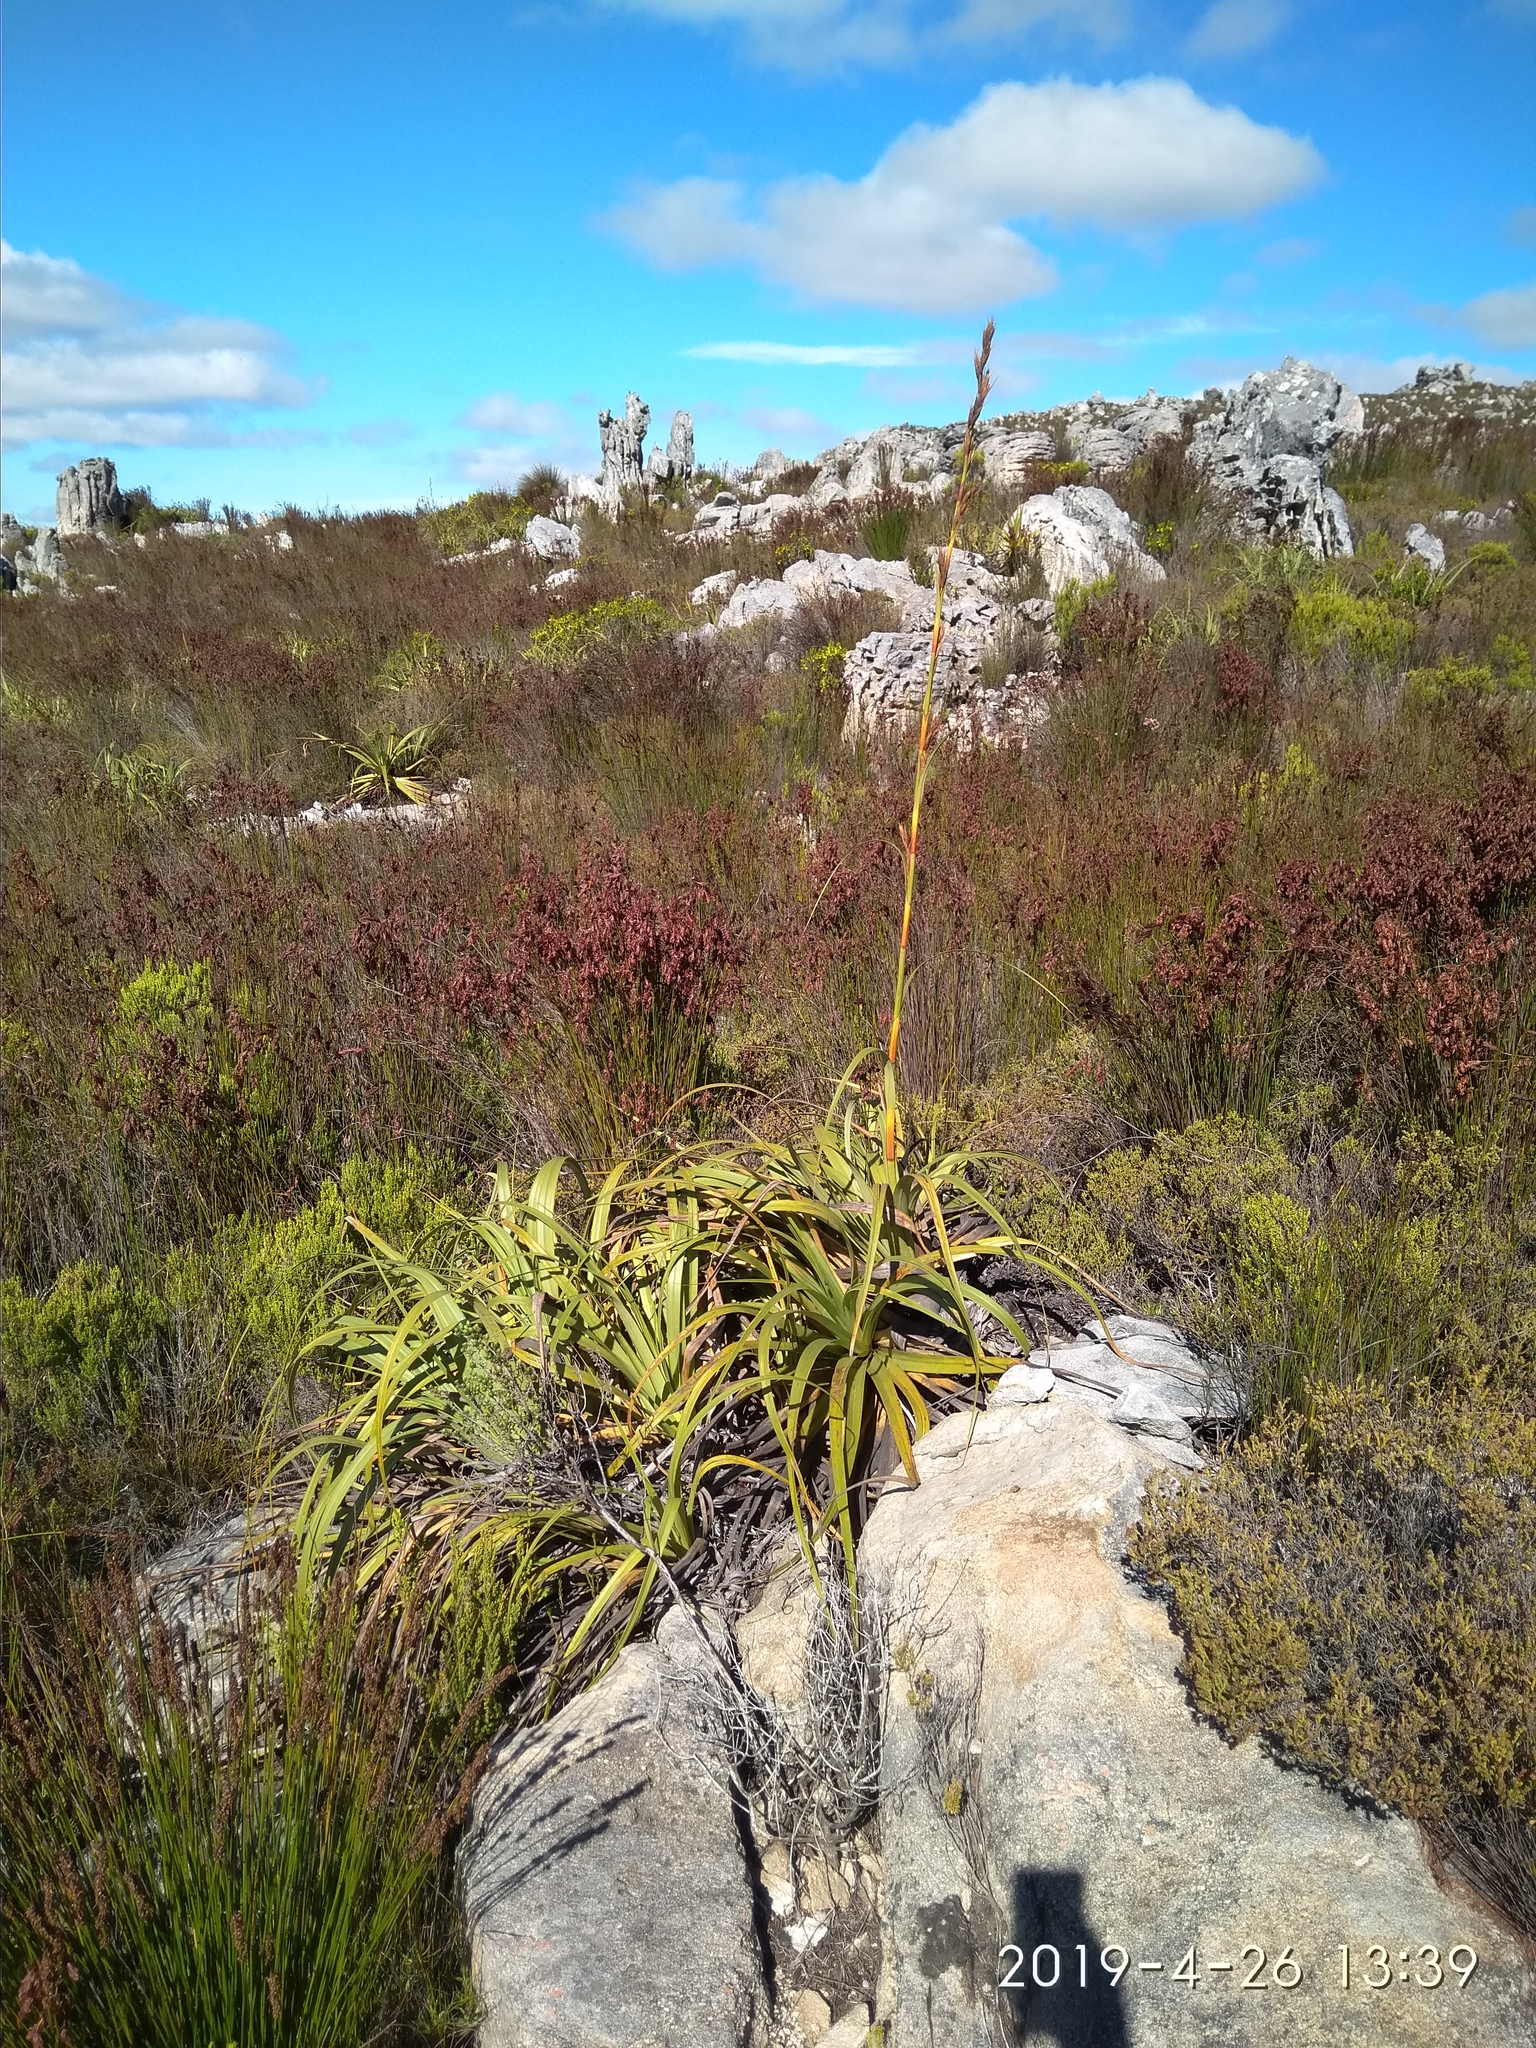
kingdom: Plantae
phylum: Tracheophyta
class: Liliopsida
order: Poales
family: Cyperaceae
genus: Tetraria
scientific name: Tetraria thermalis
